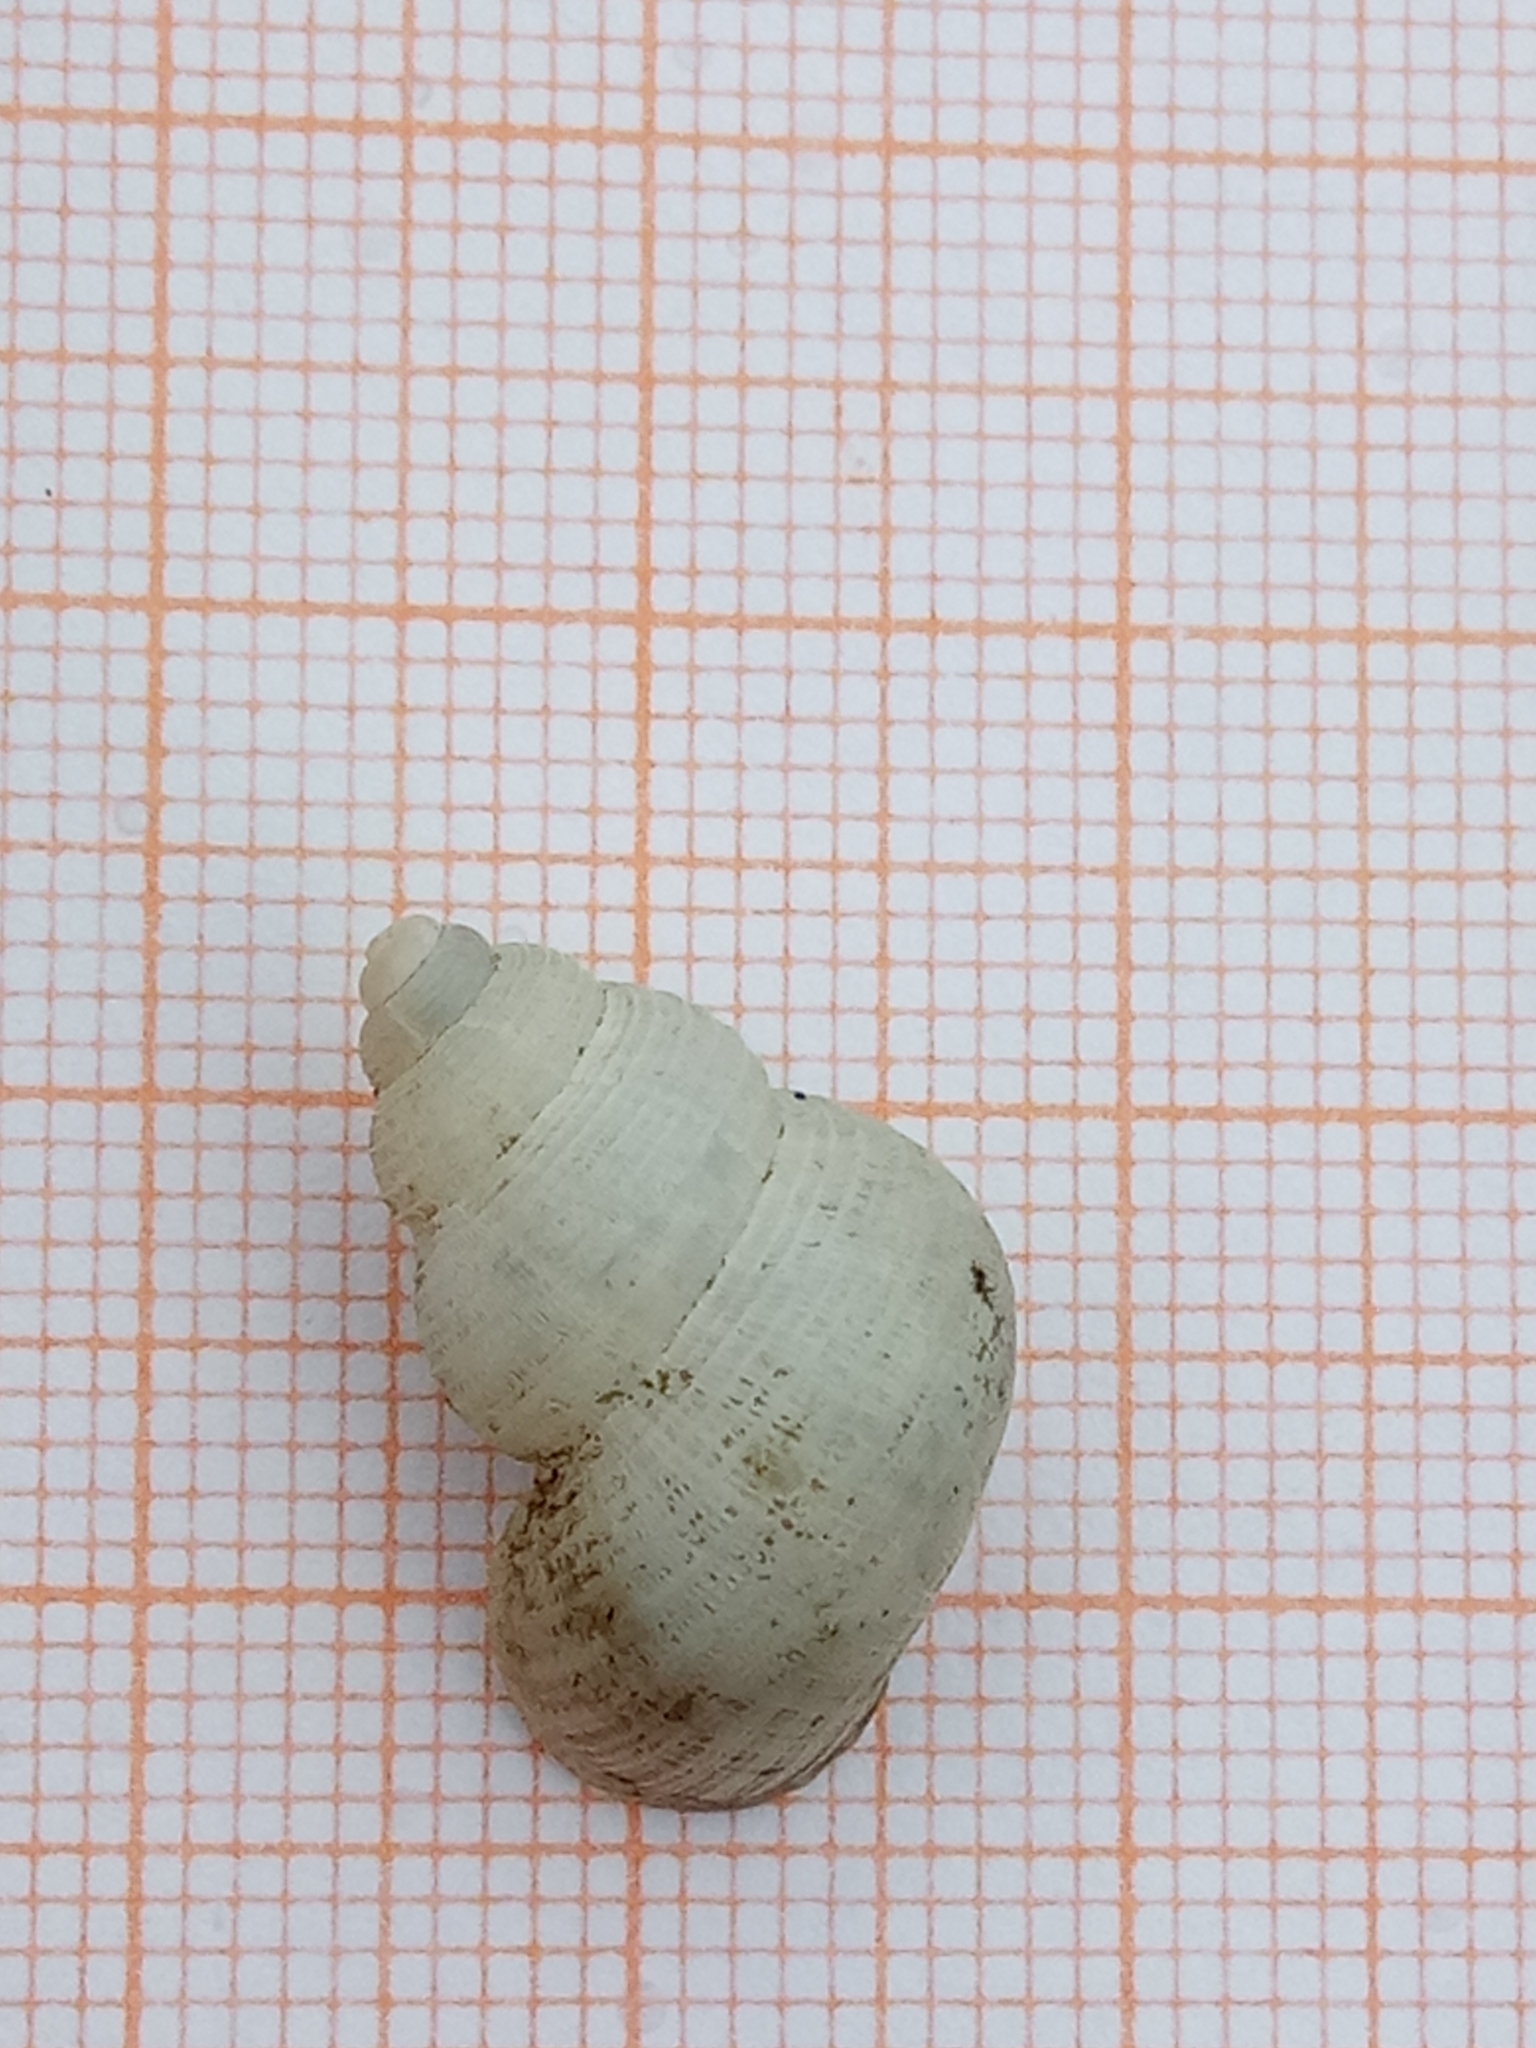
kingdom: Animalia
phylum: Mollusca
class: Gastropoda
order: Littorinimorpha
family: Pomatiidae
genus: Tudorella
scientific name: Tudorella sulcata
